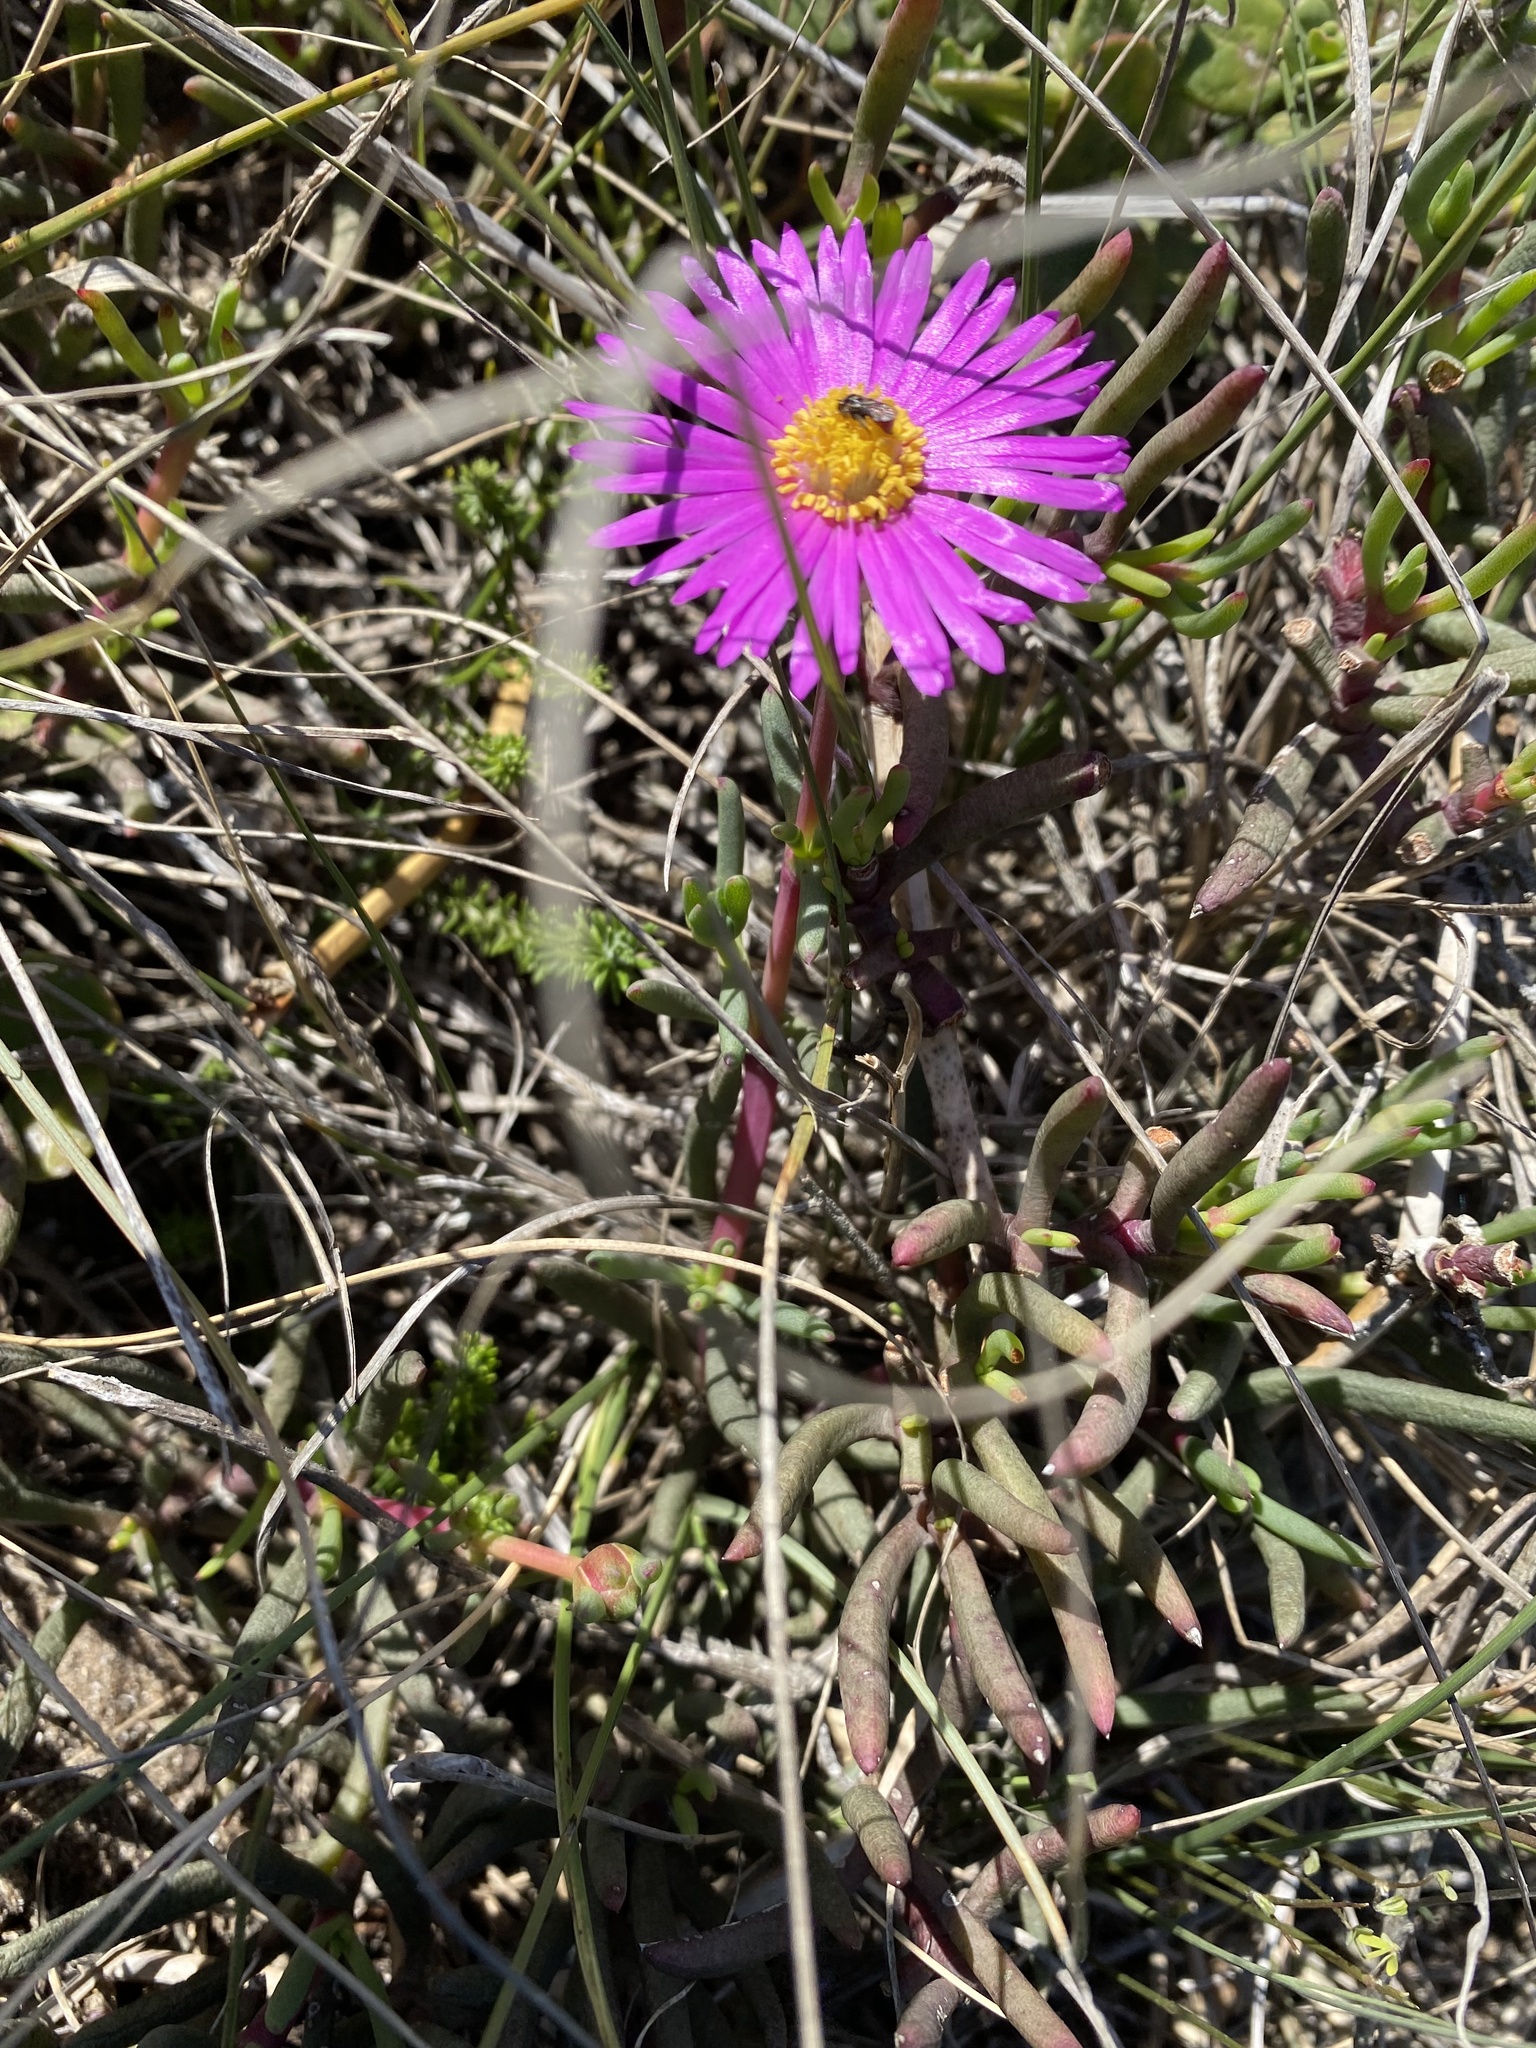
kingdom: Plantae
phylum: Tracheophyta
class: Magnoliopsida
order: Caryophyllales
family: Aizoaceae
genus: Jordaaniella
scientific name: Jordaaniella dubia
